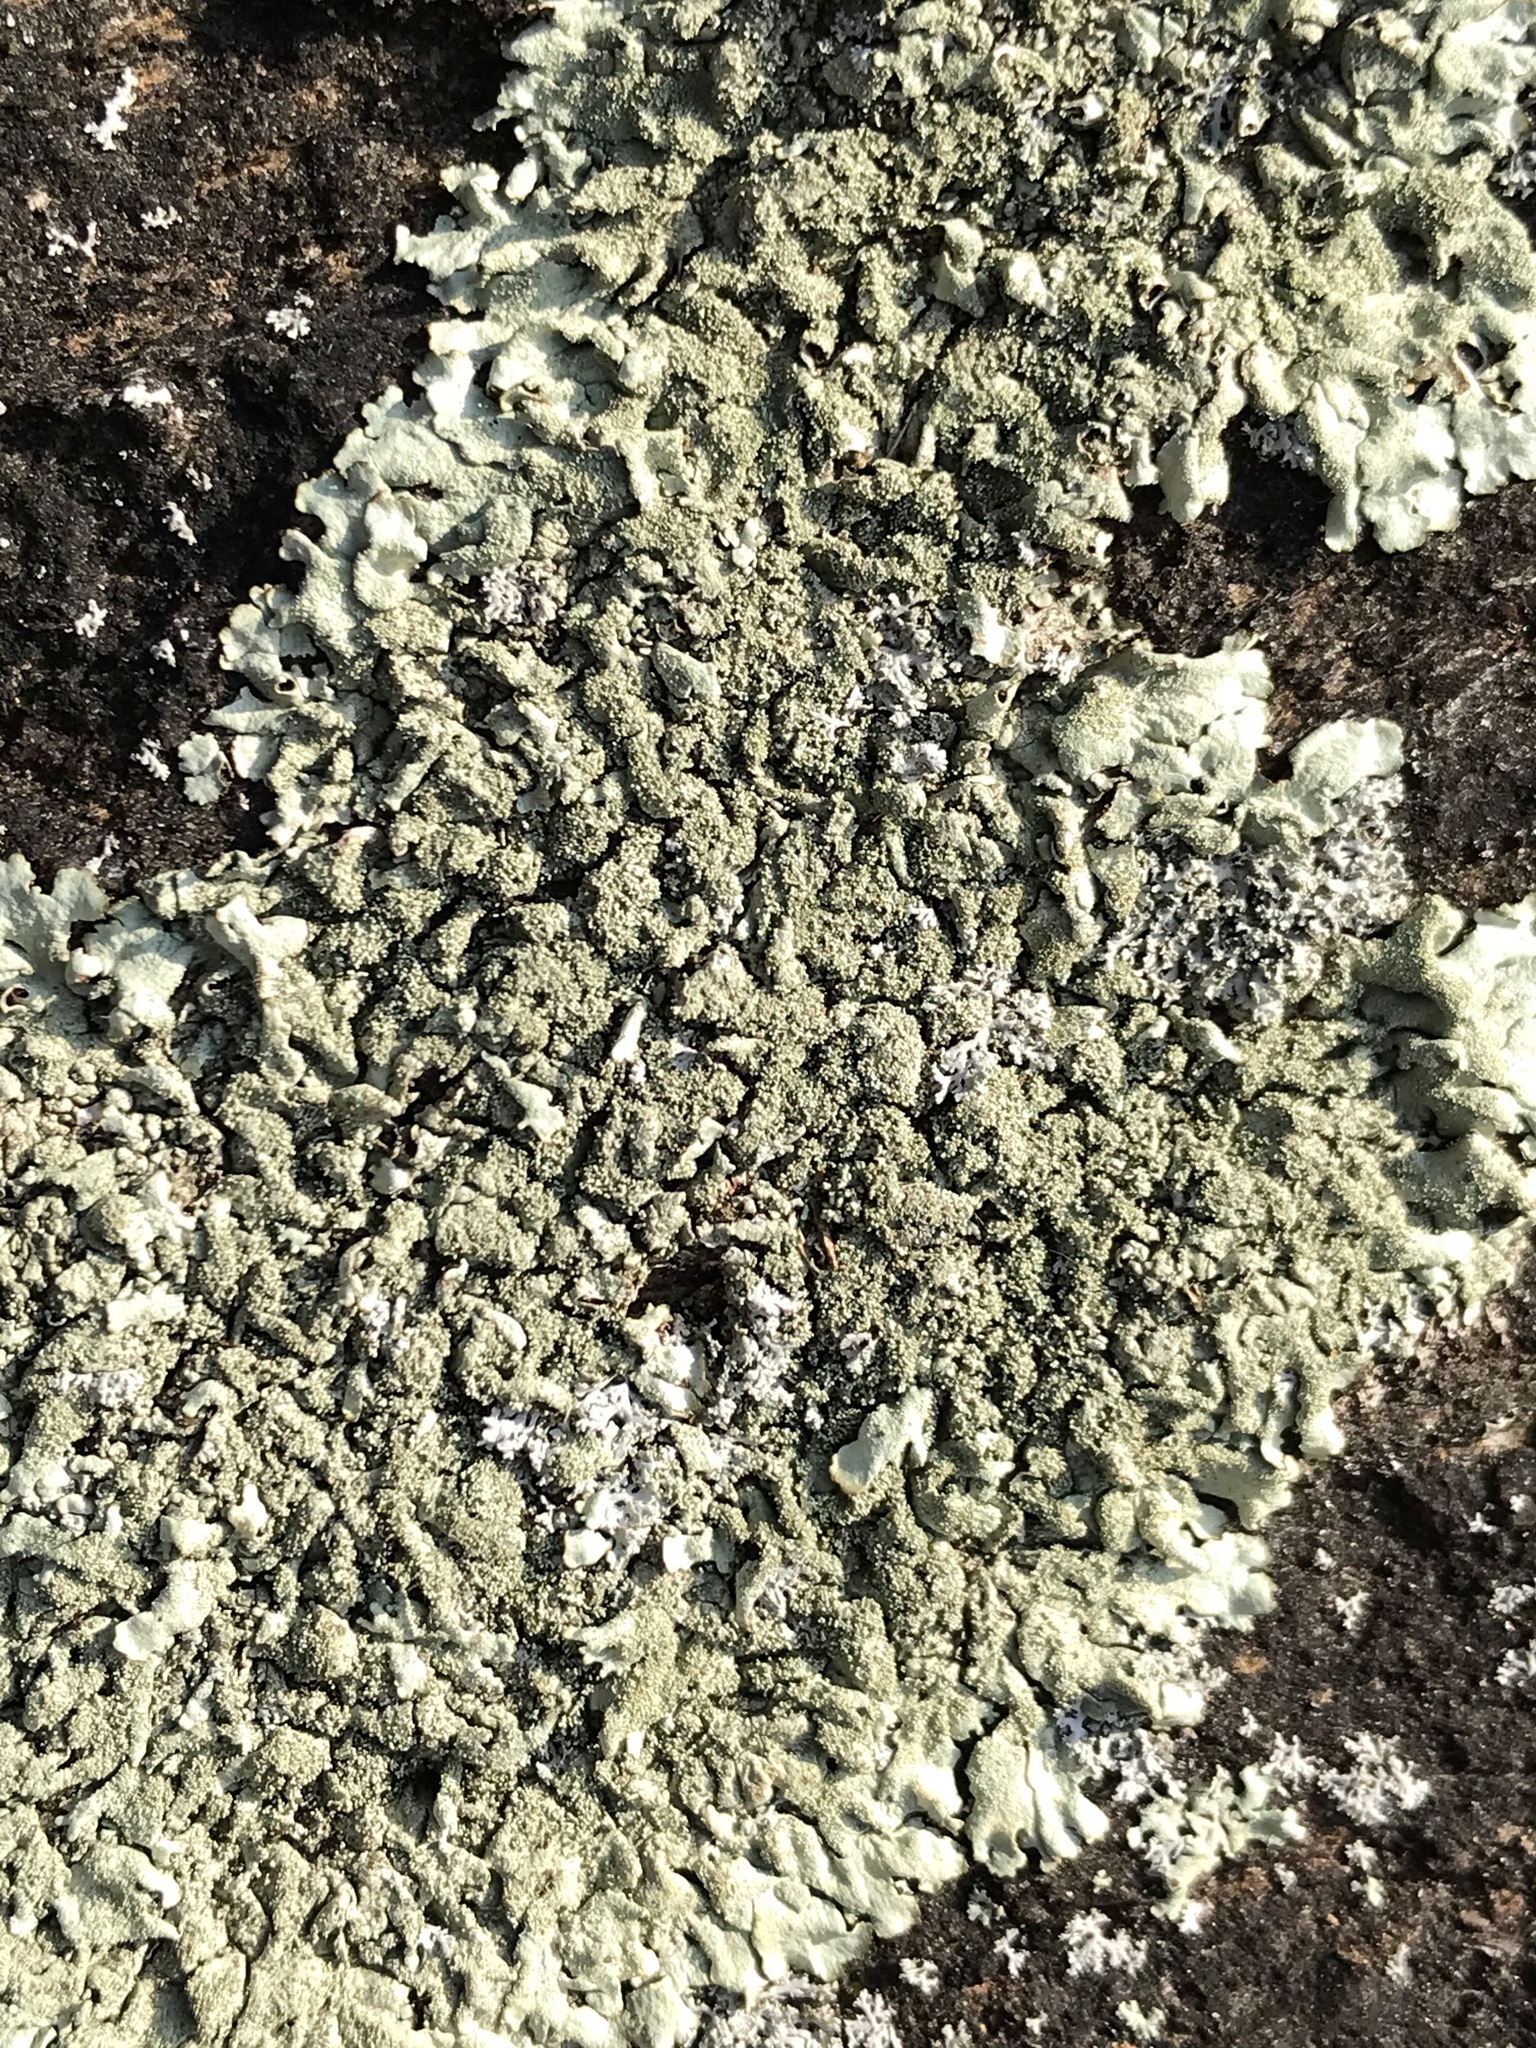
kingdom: Fungi
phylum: Ascomycota
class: Lecanoromycetes
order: Lecanorales
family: Parmeliaceae
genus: Flavoparmelia
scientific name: Flavoparmelia caperata
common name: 40-mile per hour lichen
